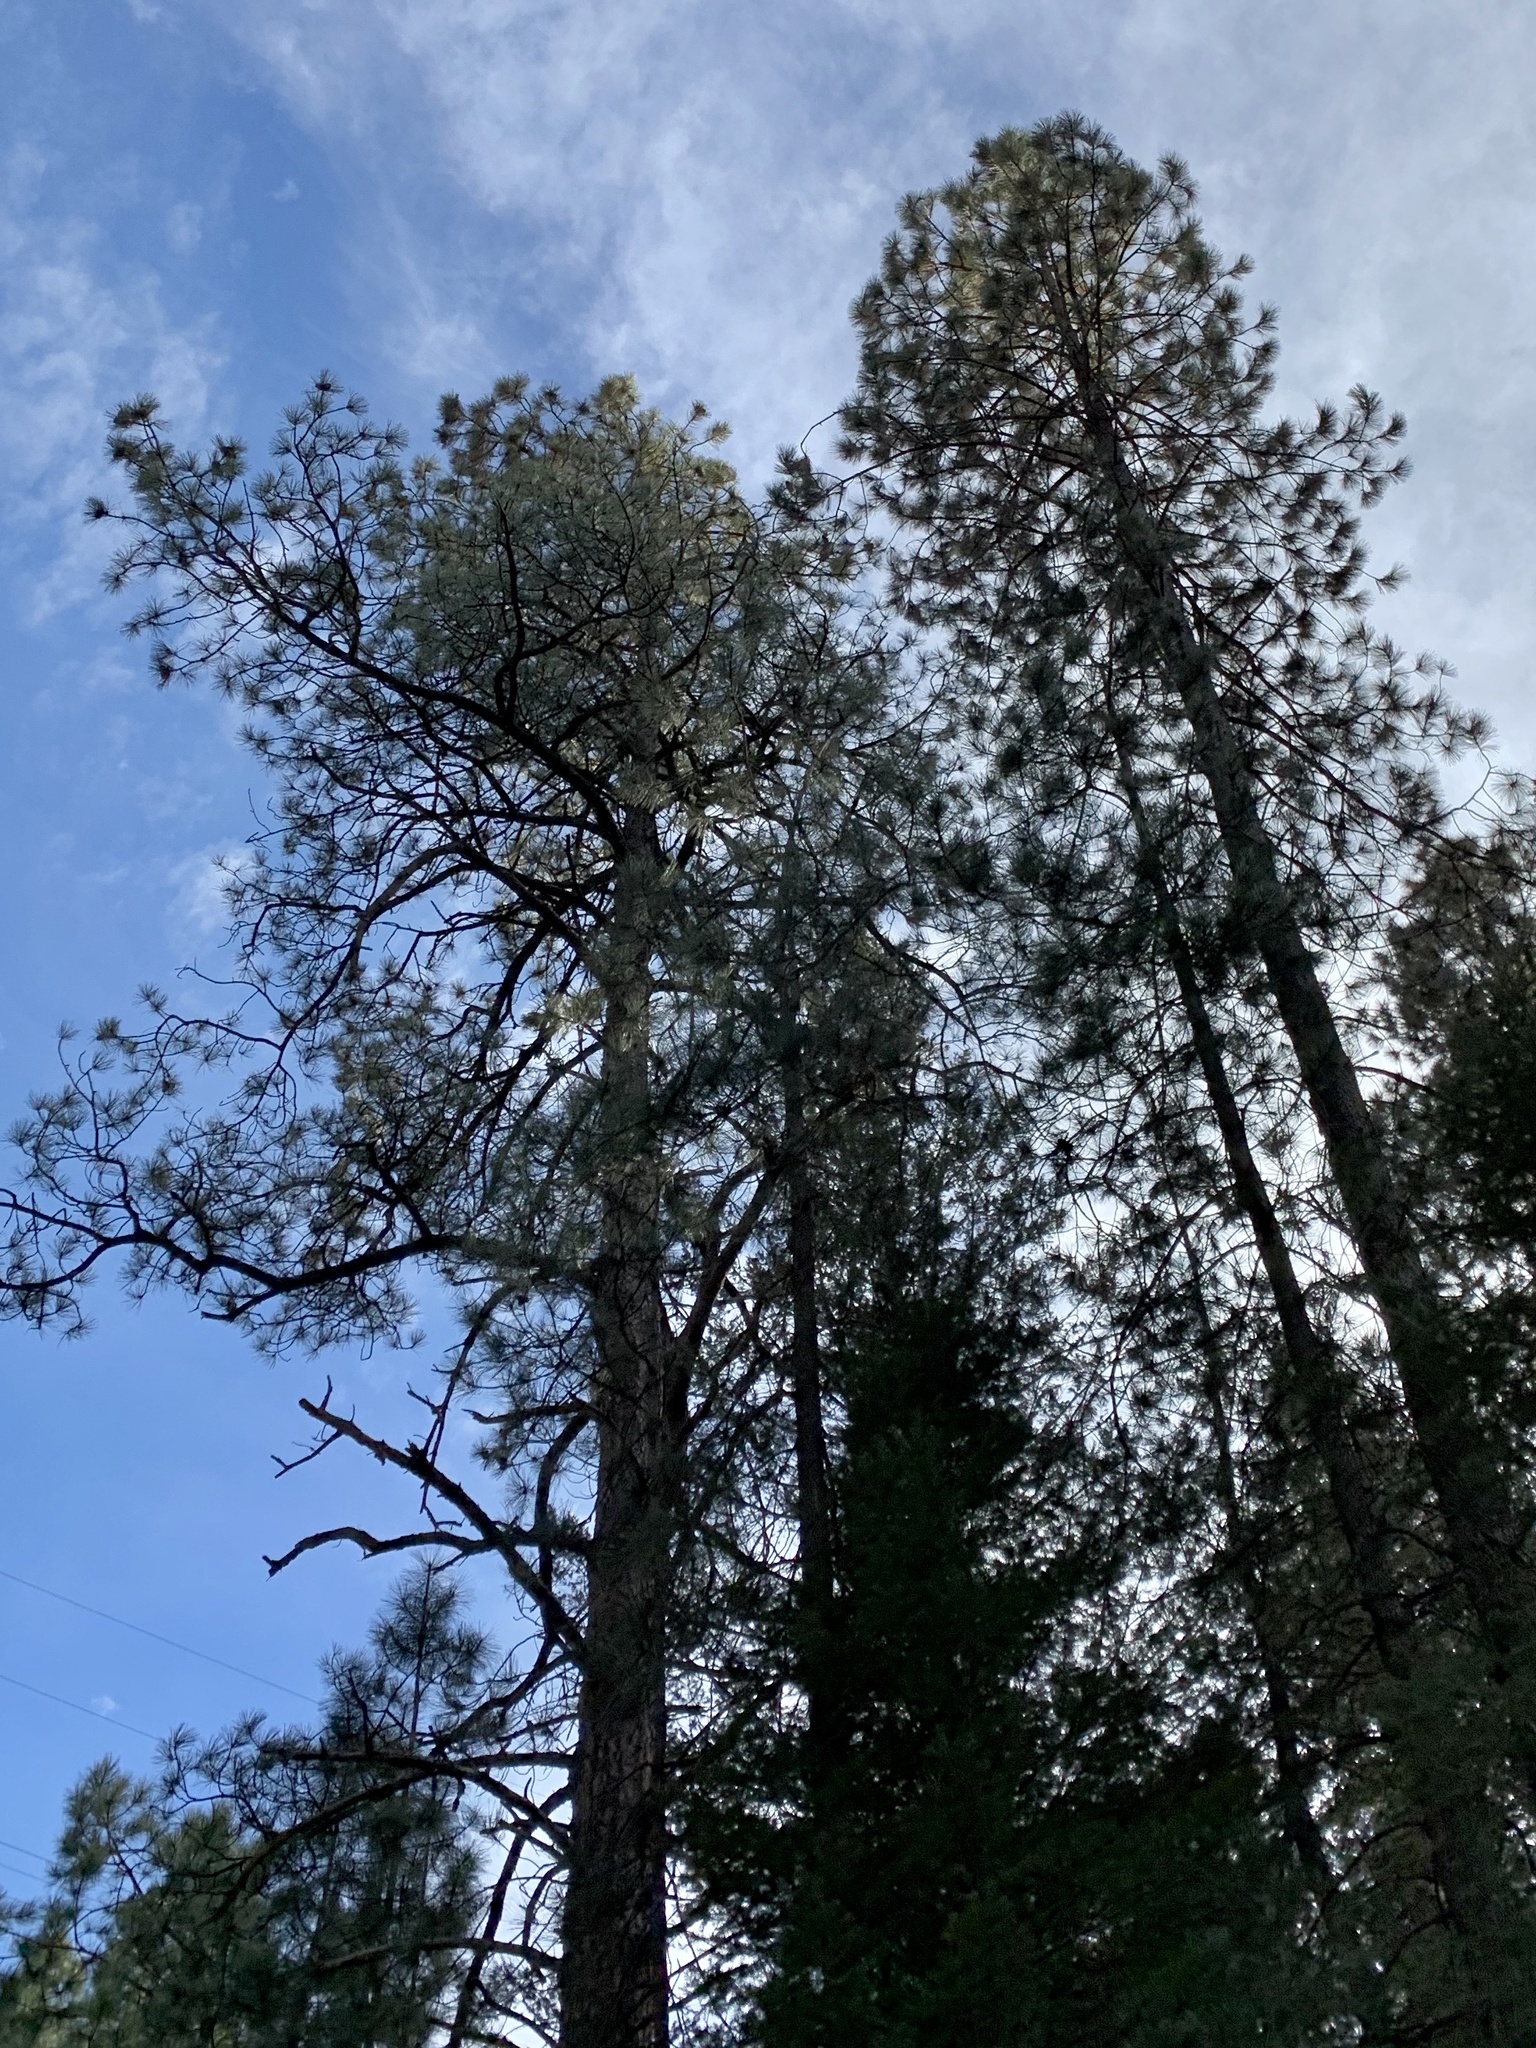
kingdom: Plantae
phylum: Tracheophyta
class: Pinopsida
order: Pinales
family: Pinaceae
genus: Pinus
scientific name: Pinus ponderosa
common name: Western yellow-pine
